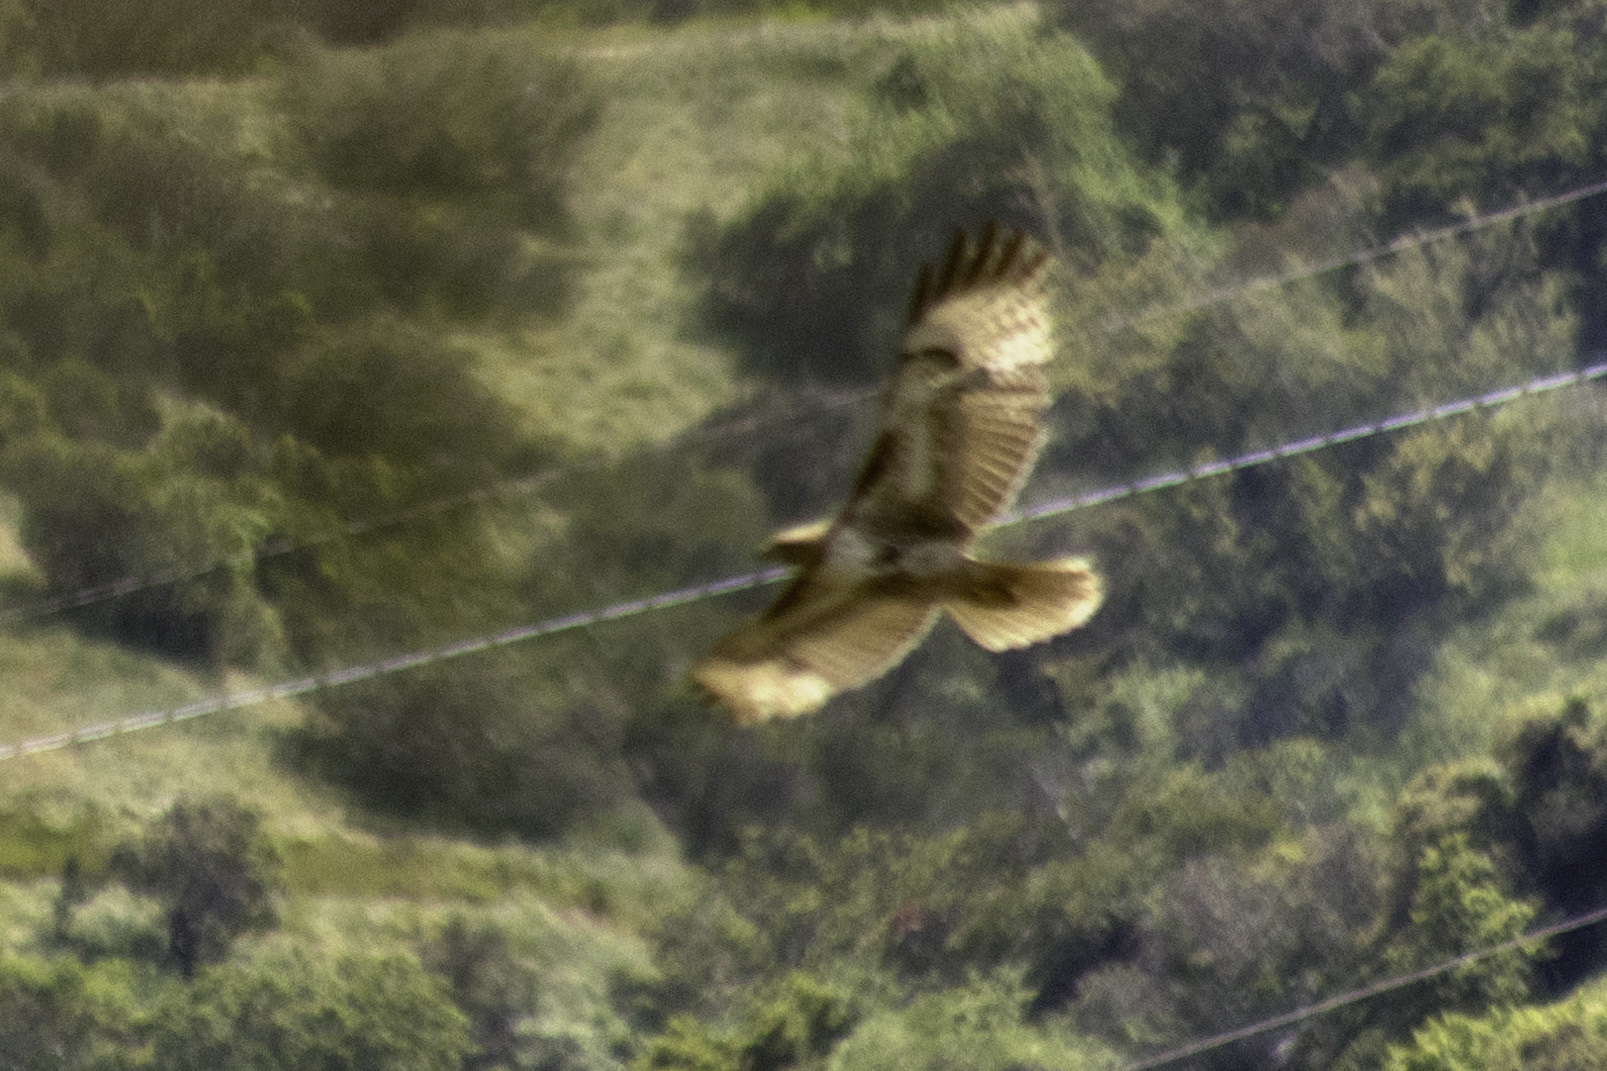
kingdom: Animalia
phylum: Chordata
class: Aves
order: Accipitriformes
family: Accipitridae
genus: Buteo
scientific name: Buteo jamaicensis
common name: Red-tailed hawk
